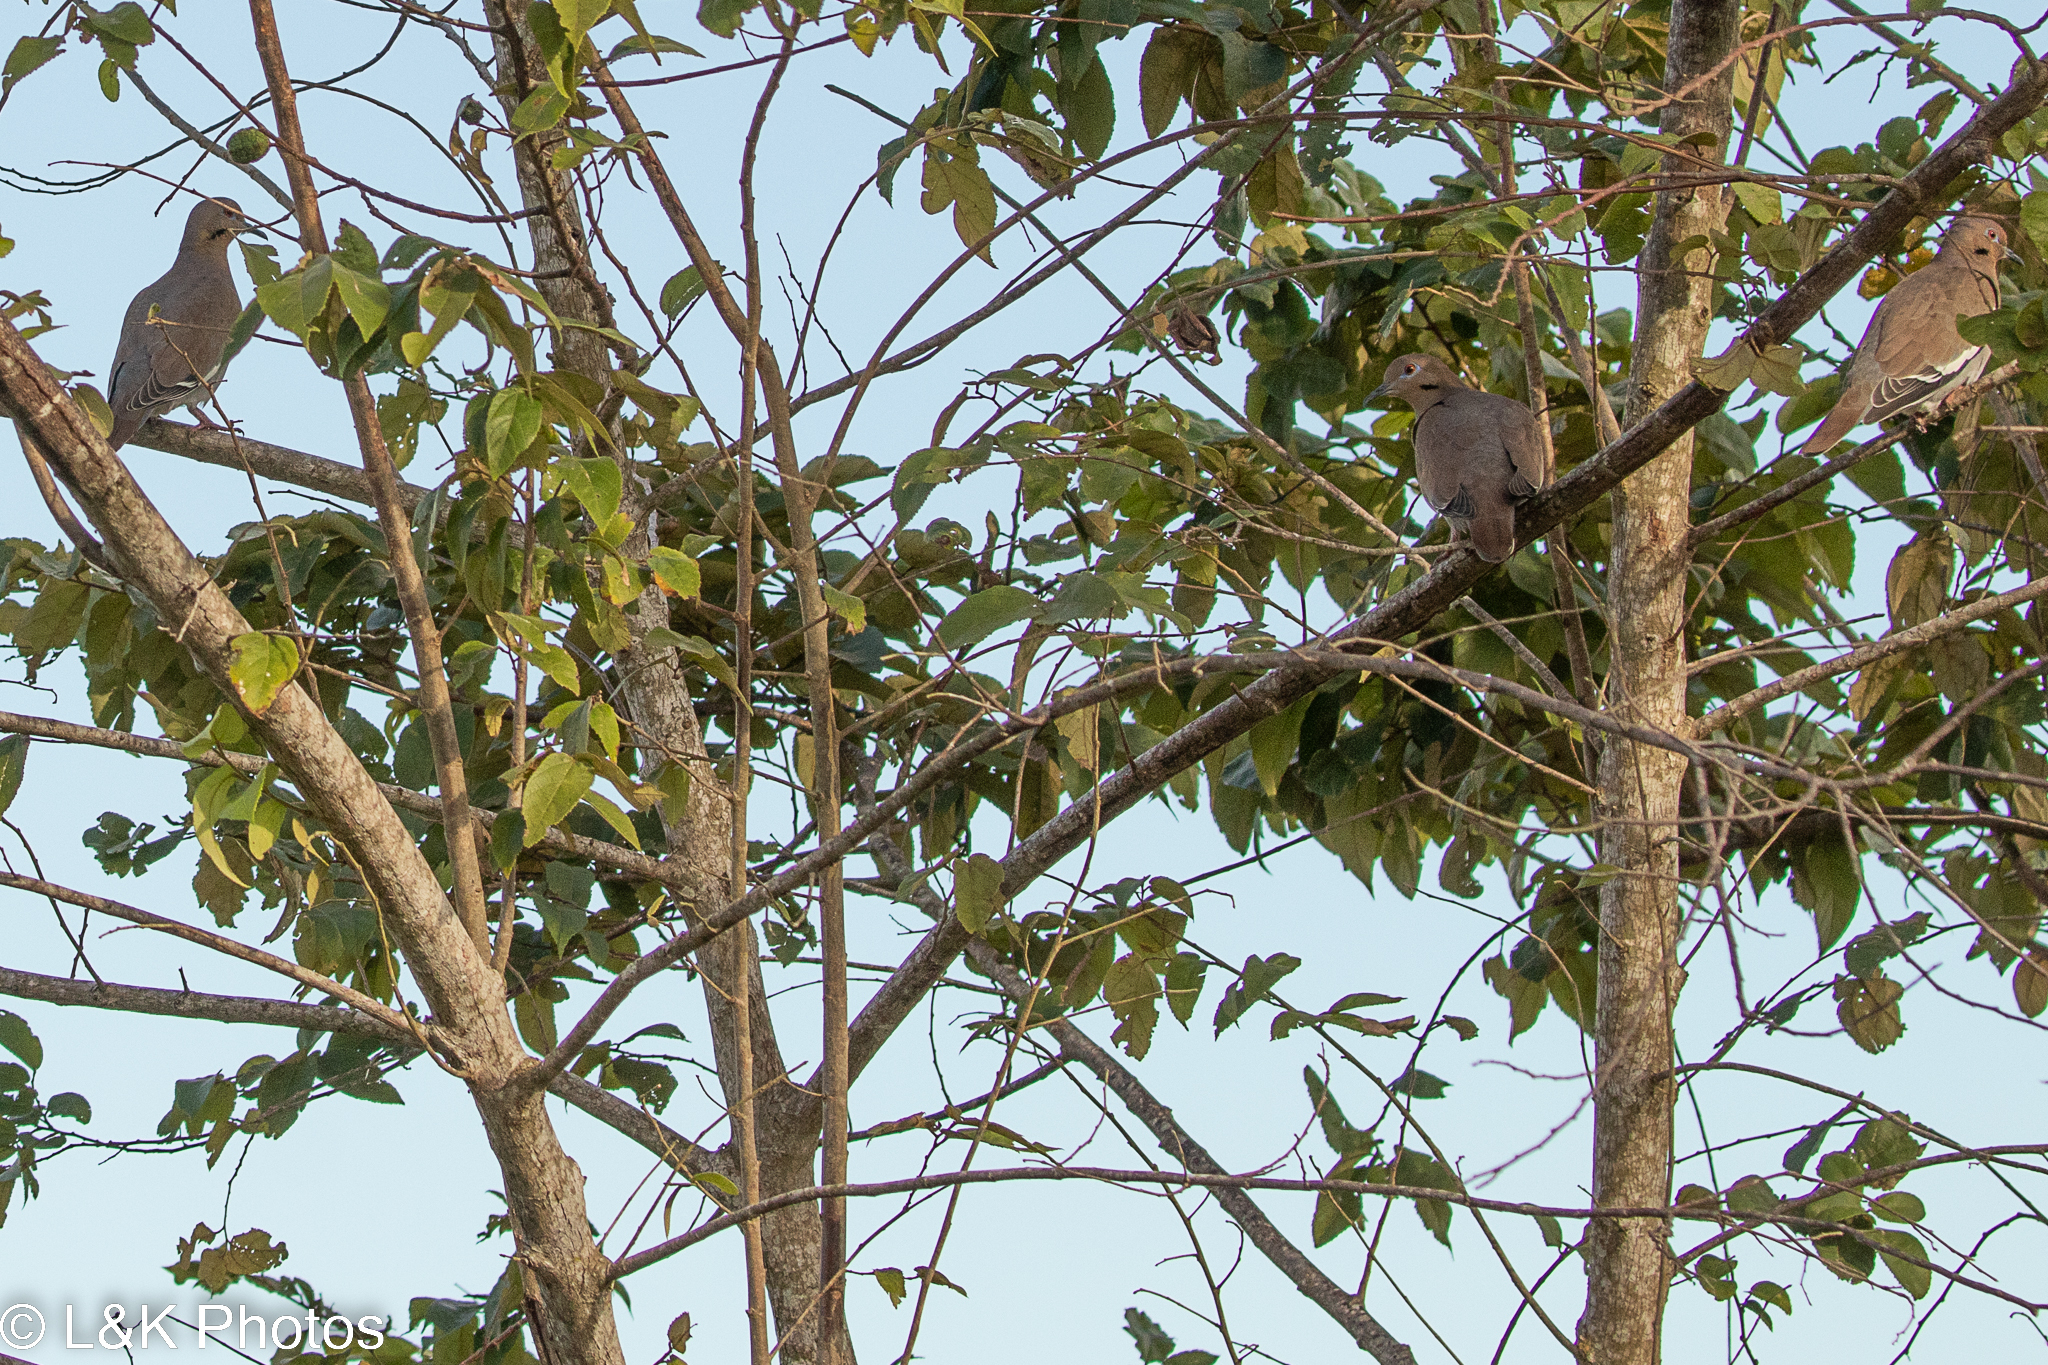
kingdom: Animalia
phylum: Chordata
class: Aves
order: Columbiformes
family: Columbidae
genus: Zenaida
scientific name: Zenaida asiatica
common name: White-winged dove
